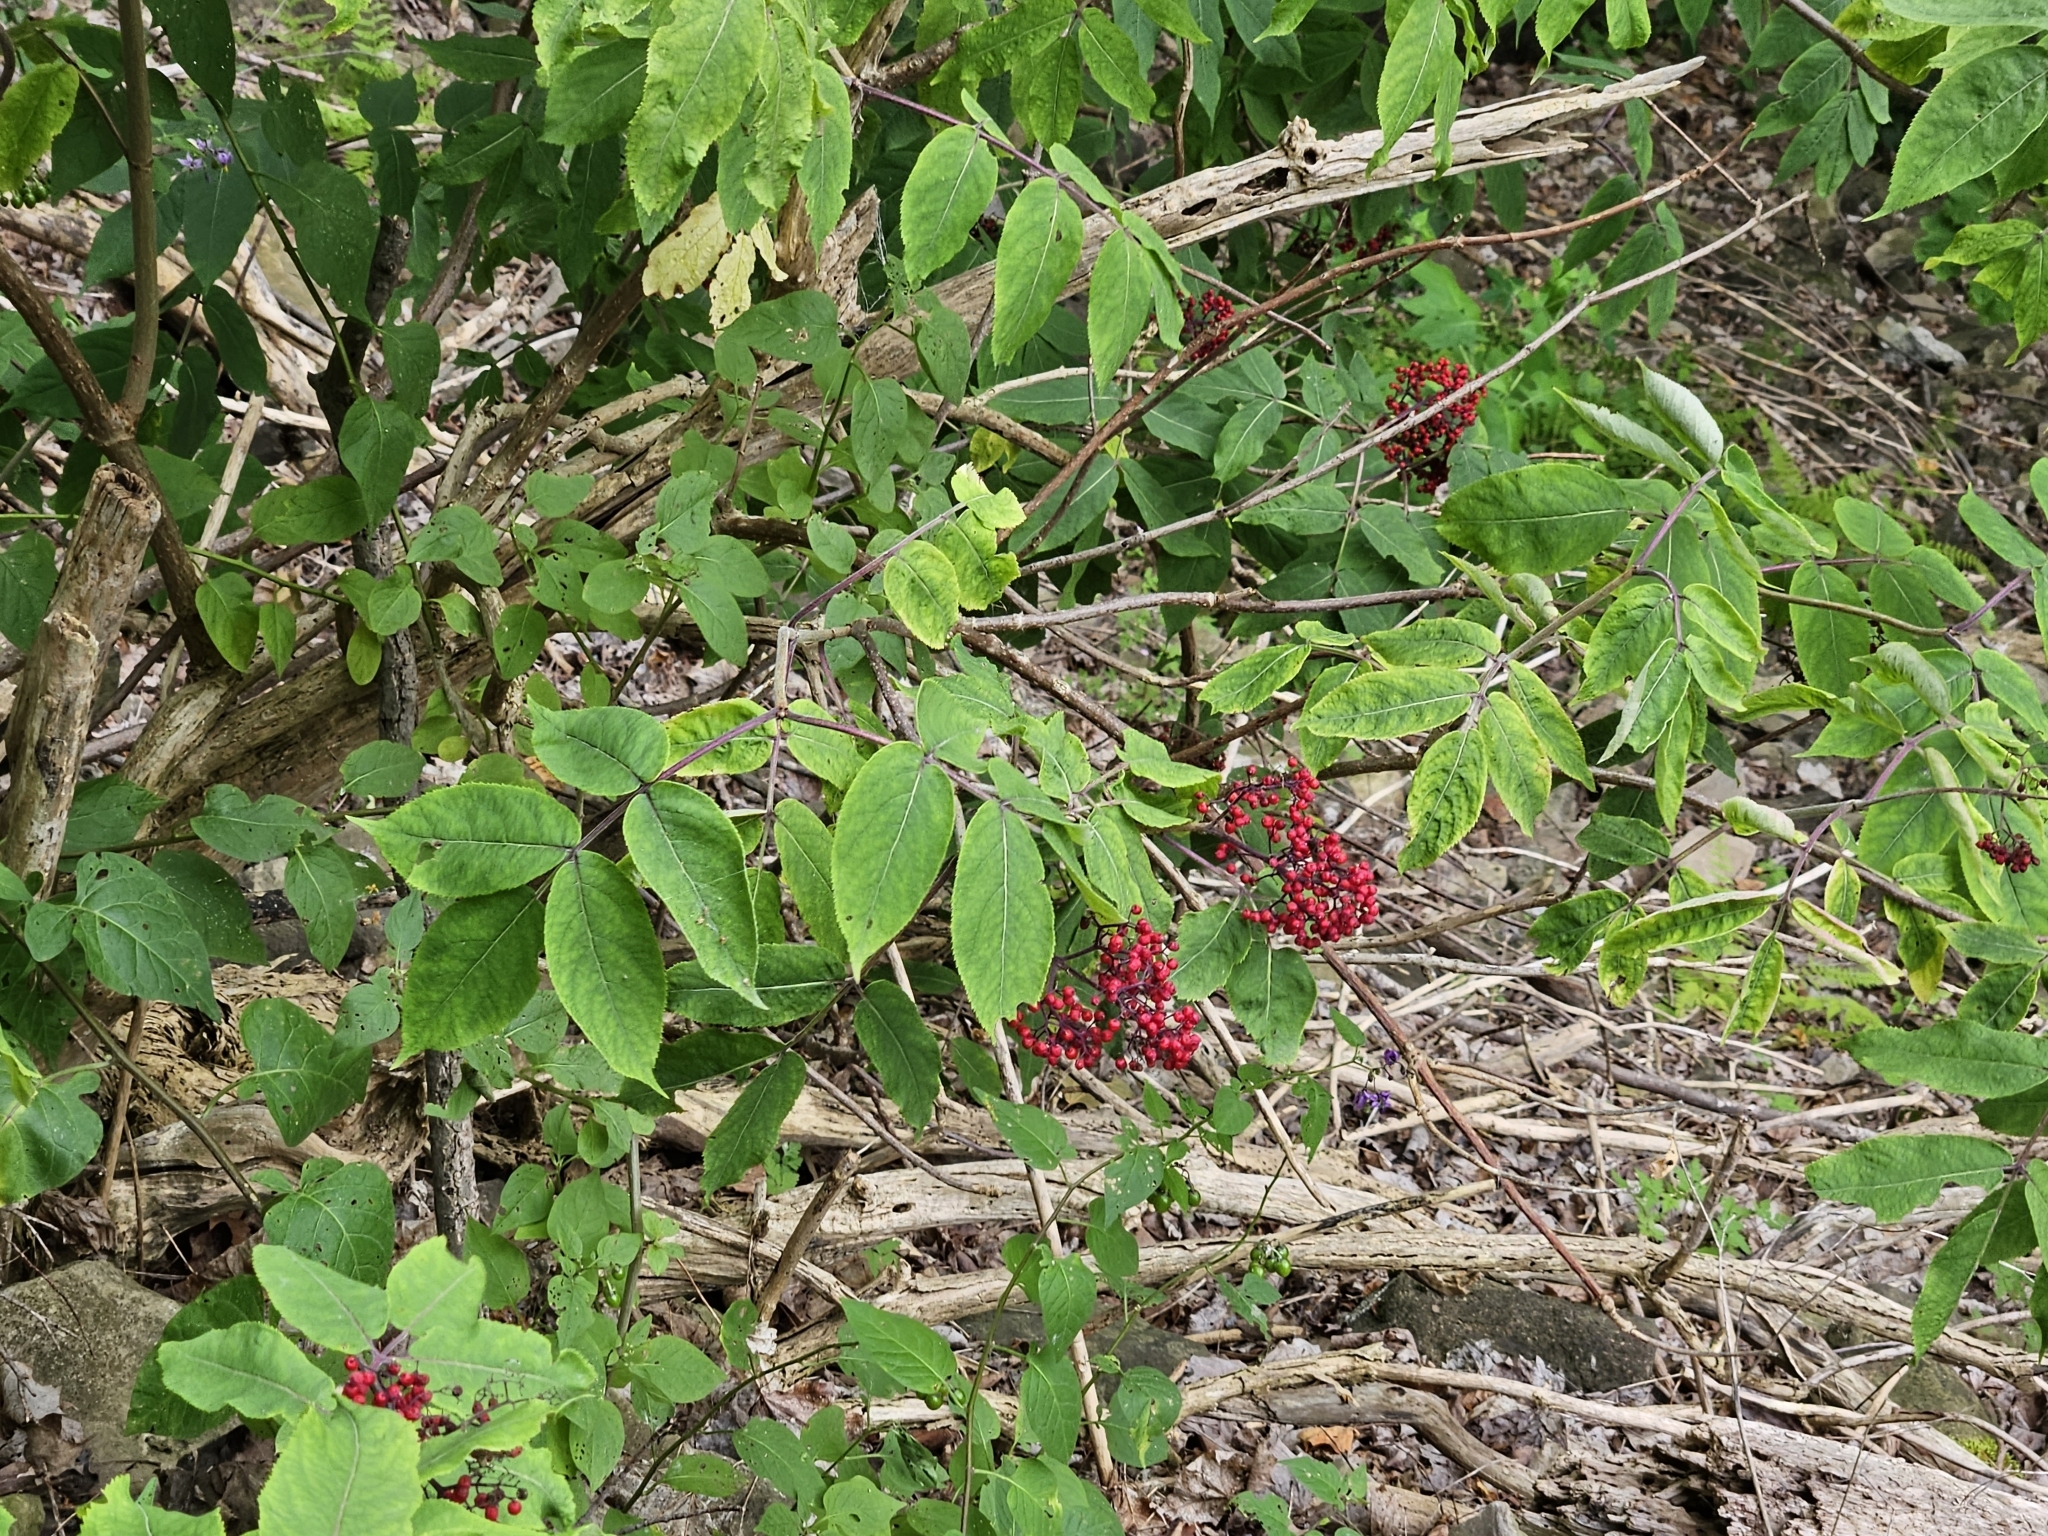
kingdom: Plantae
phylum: Tracheophyta
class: Magnoliopsida
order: Dipsacales
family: Viburnaceae
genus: Sambucus
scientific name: Sambucus racemosa
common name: Red-berried elder
